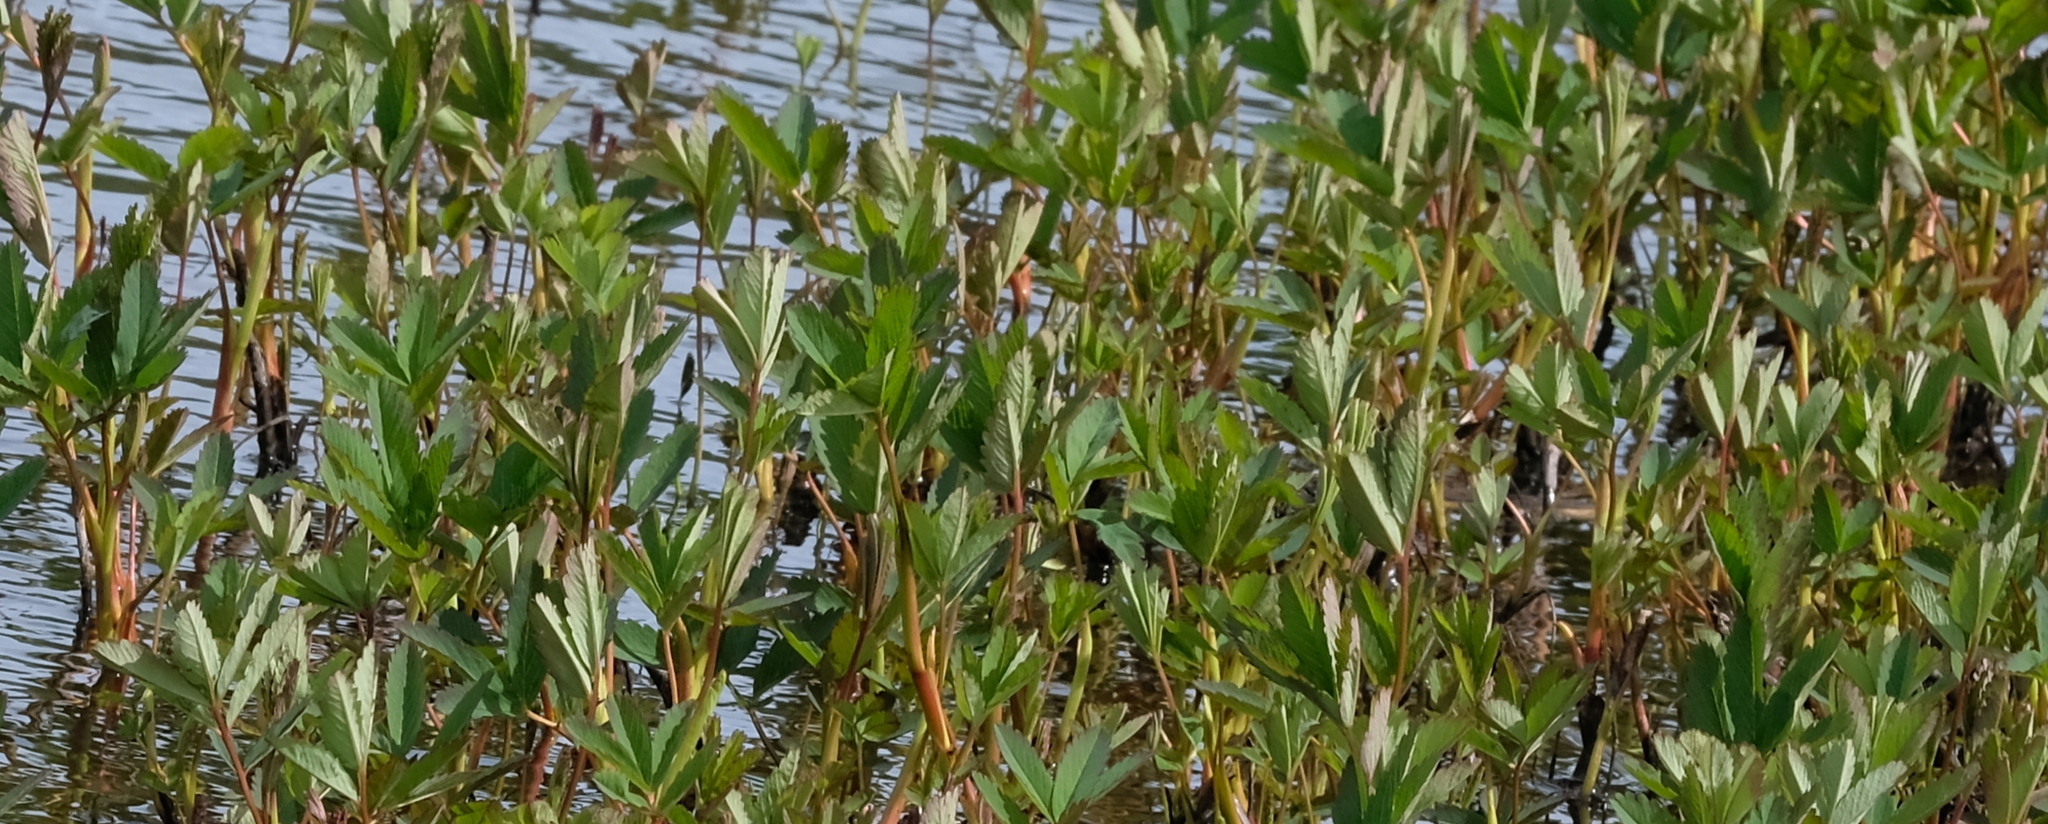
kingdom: Plantae
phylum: Tracheophyta
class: Magnoliopsida
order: Rosales
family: Rosaceae
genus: Comarum
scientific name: Comarum palustre
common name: Marsh cinquefoil
